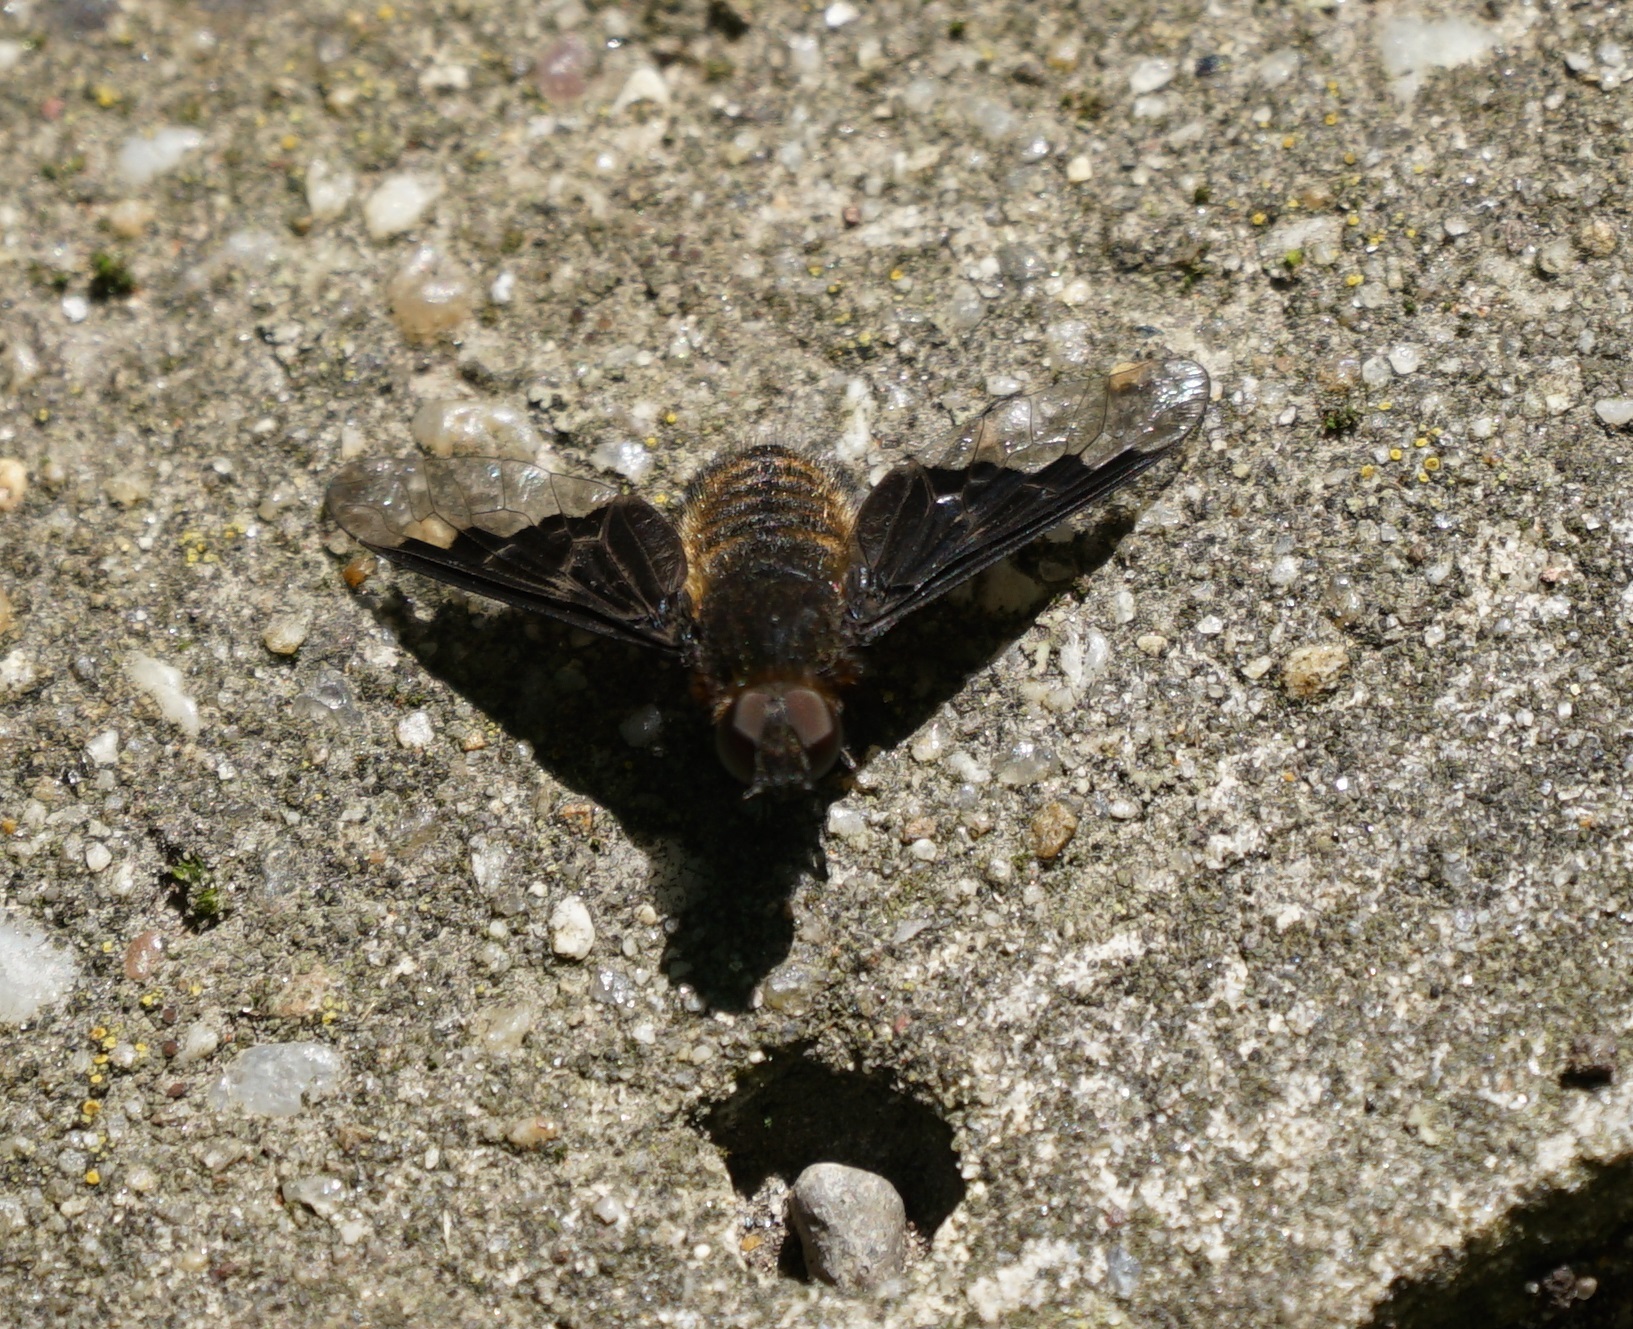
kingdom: Animalia
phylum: Arthropoda
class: Insecta
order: Diptera
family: Bombyliidae
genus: Hemipenthes
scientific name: Hemipenthes morio
